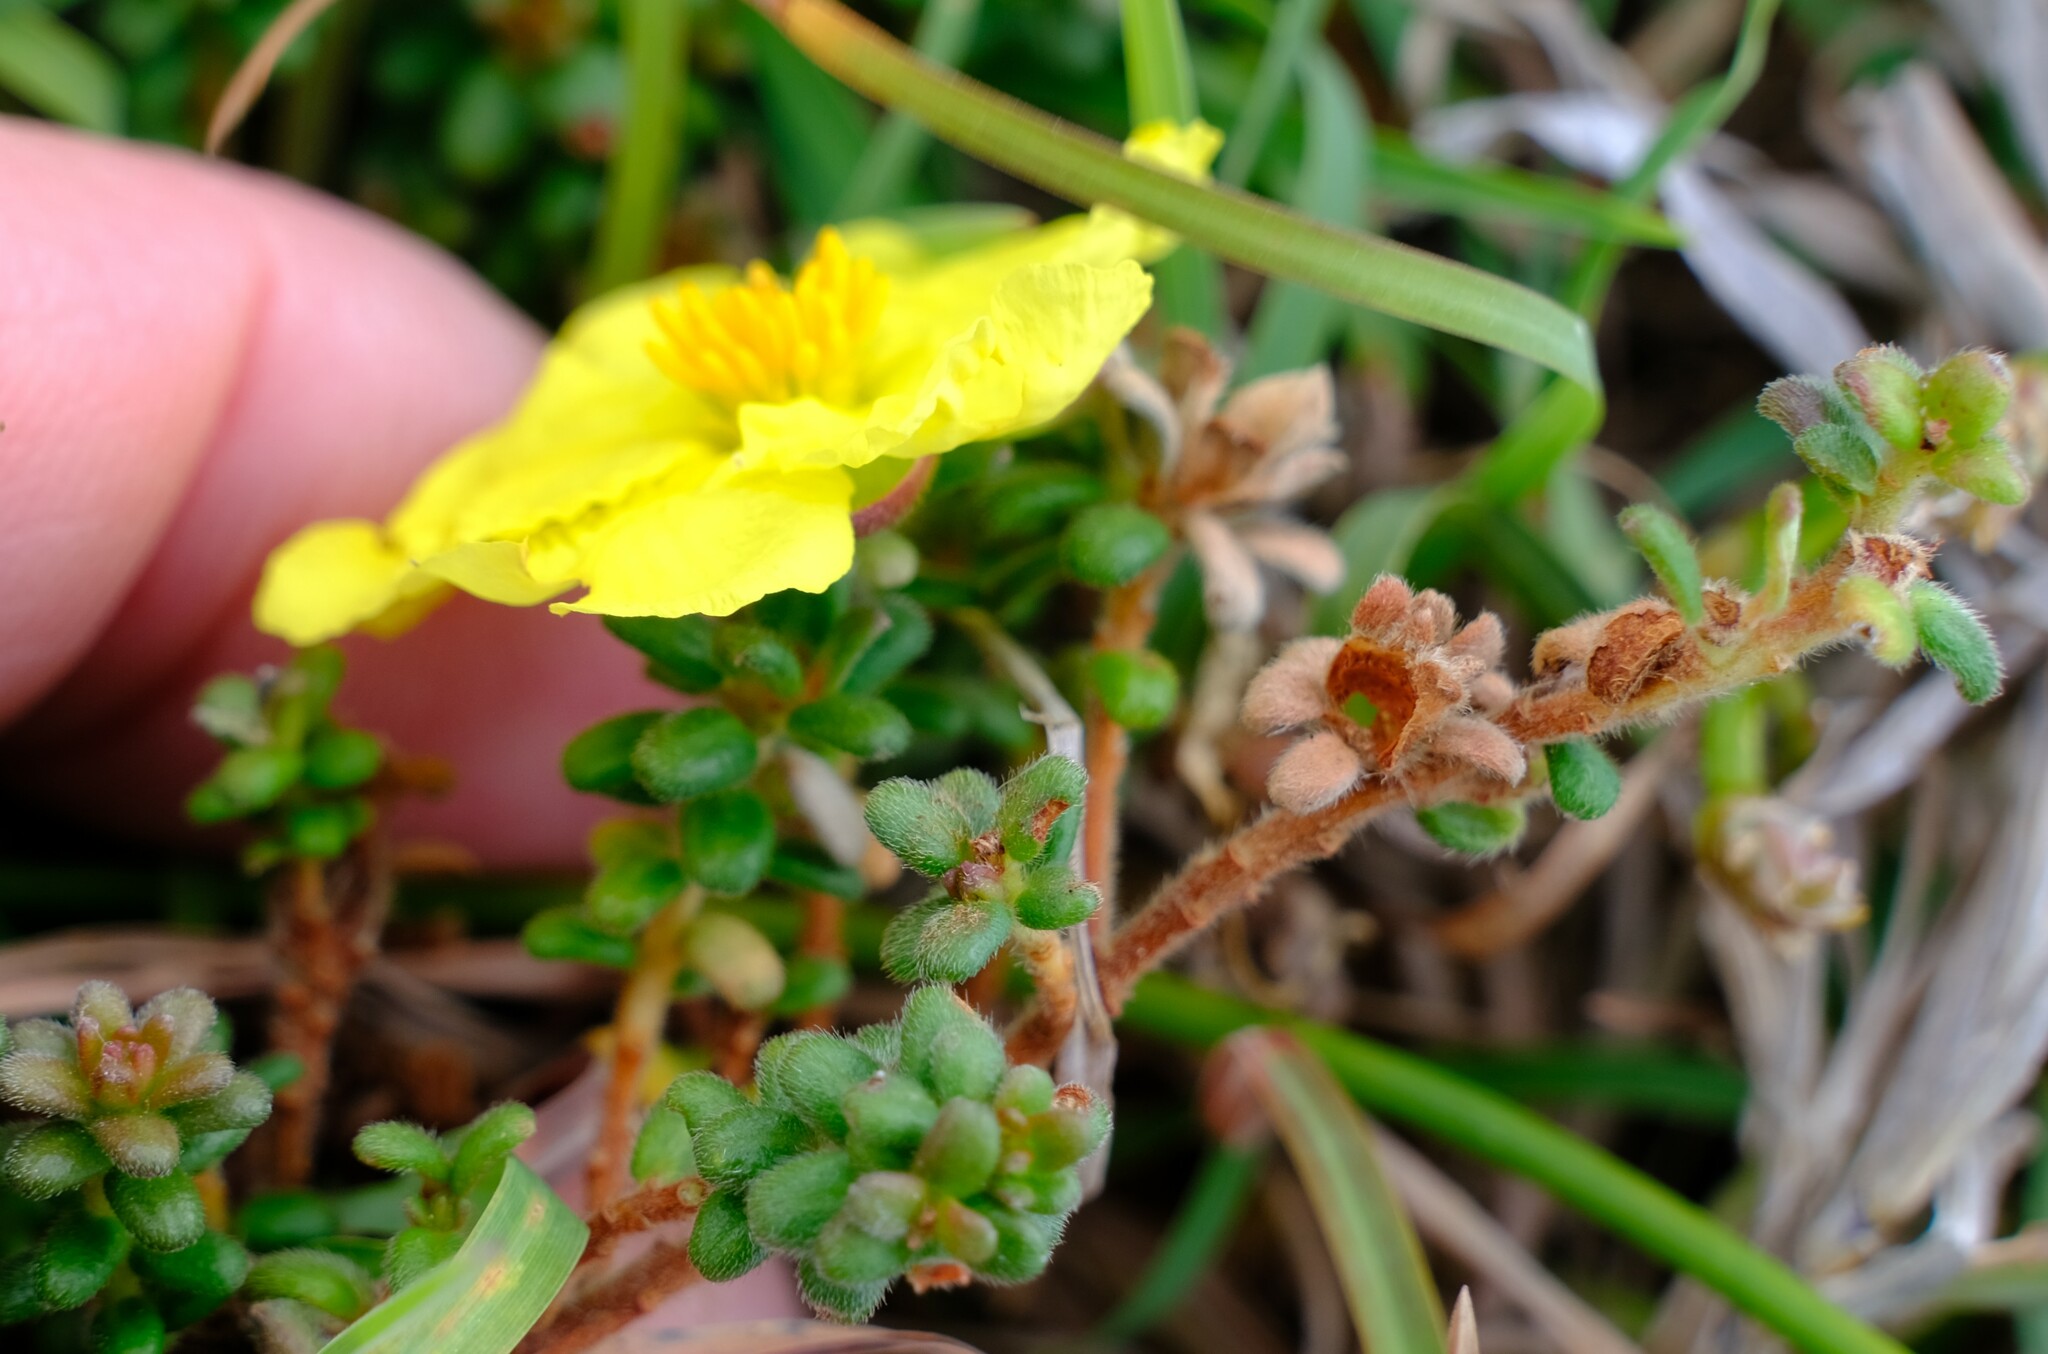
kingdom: Plantae
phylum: Tracheophyta
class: Magnoliopsida
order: Dilleniales
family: Dilleniaceae
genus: Hibbertia
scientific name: Hibbertia vestita
